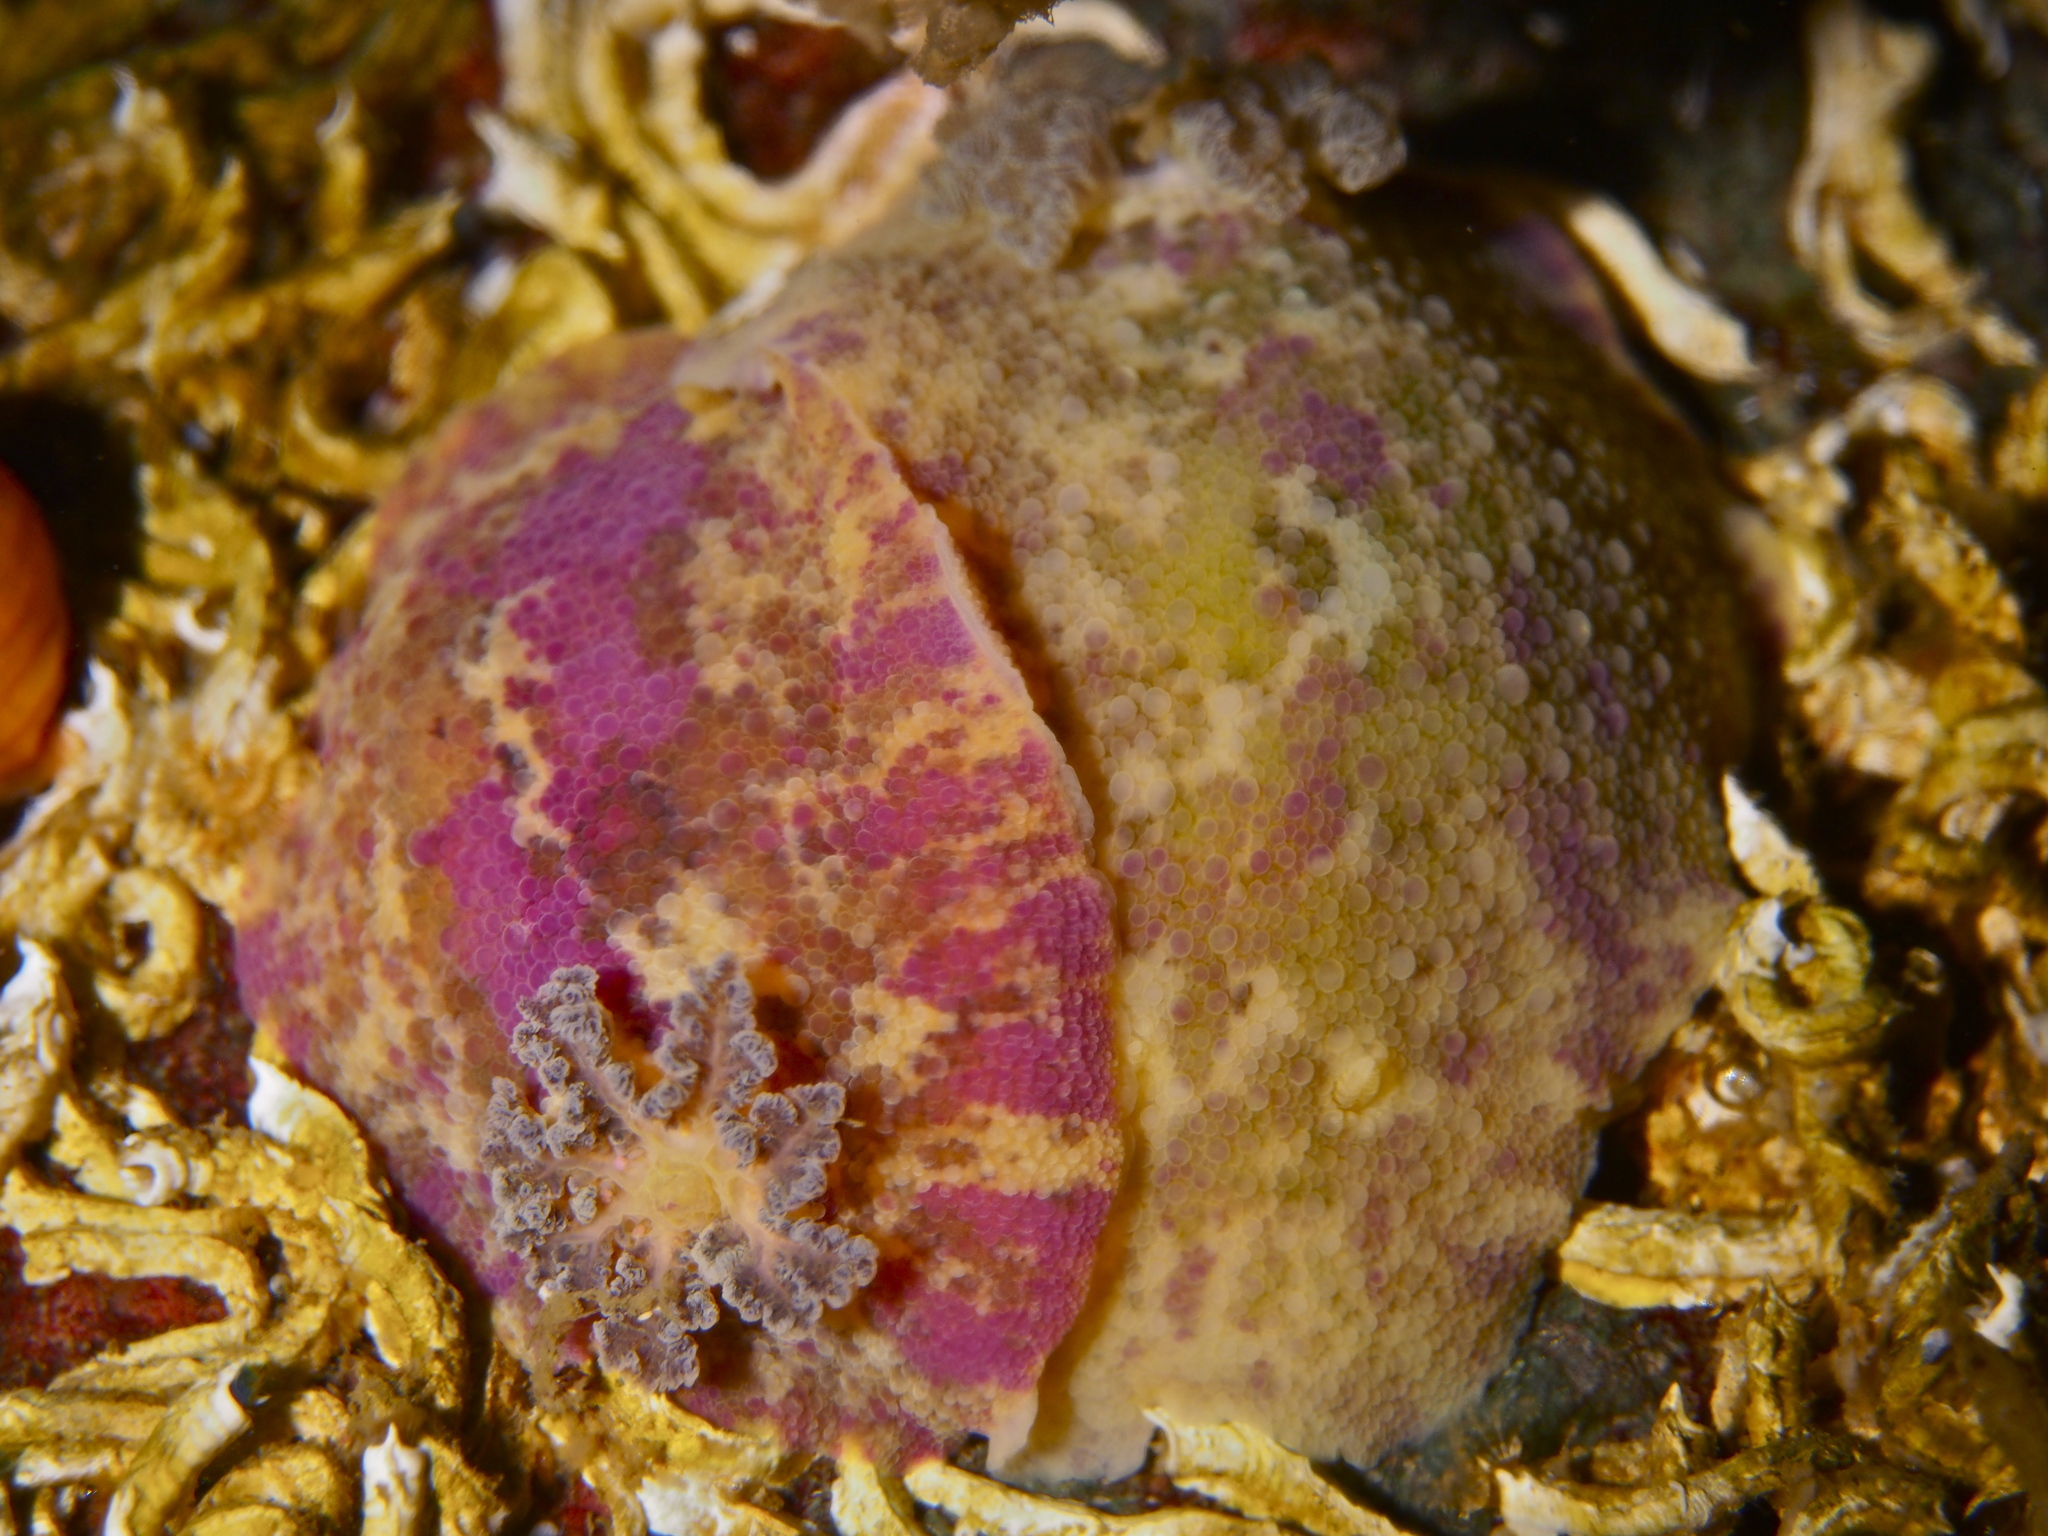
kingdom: Animalia
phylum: Mollusca
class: Gastropoda
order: Nudibranchia
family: Dorididae
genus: Doris
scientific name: Doris pseudoargus
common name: Sea lemon
